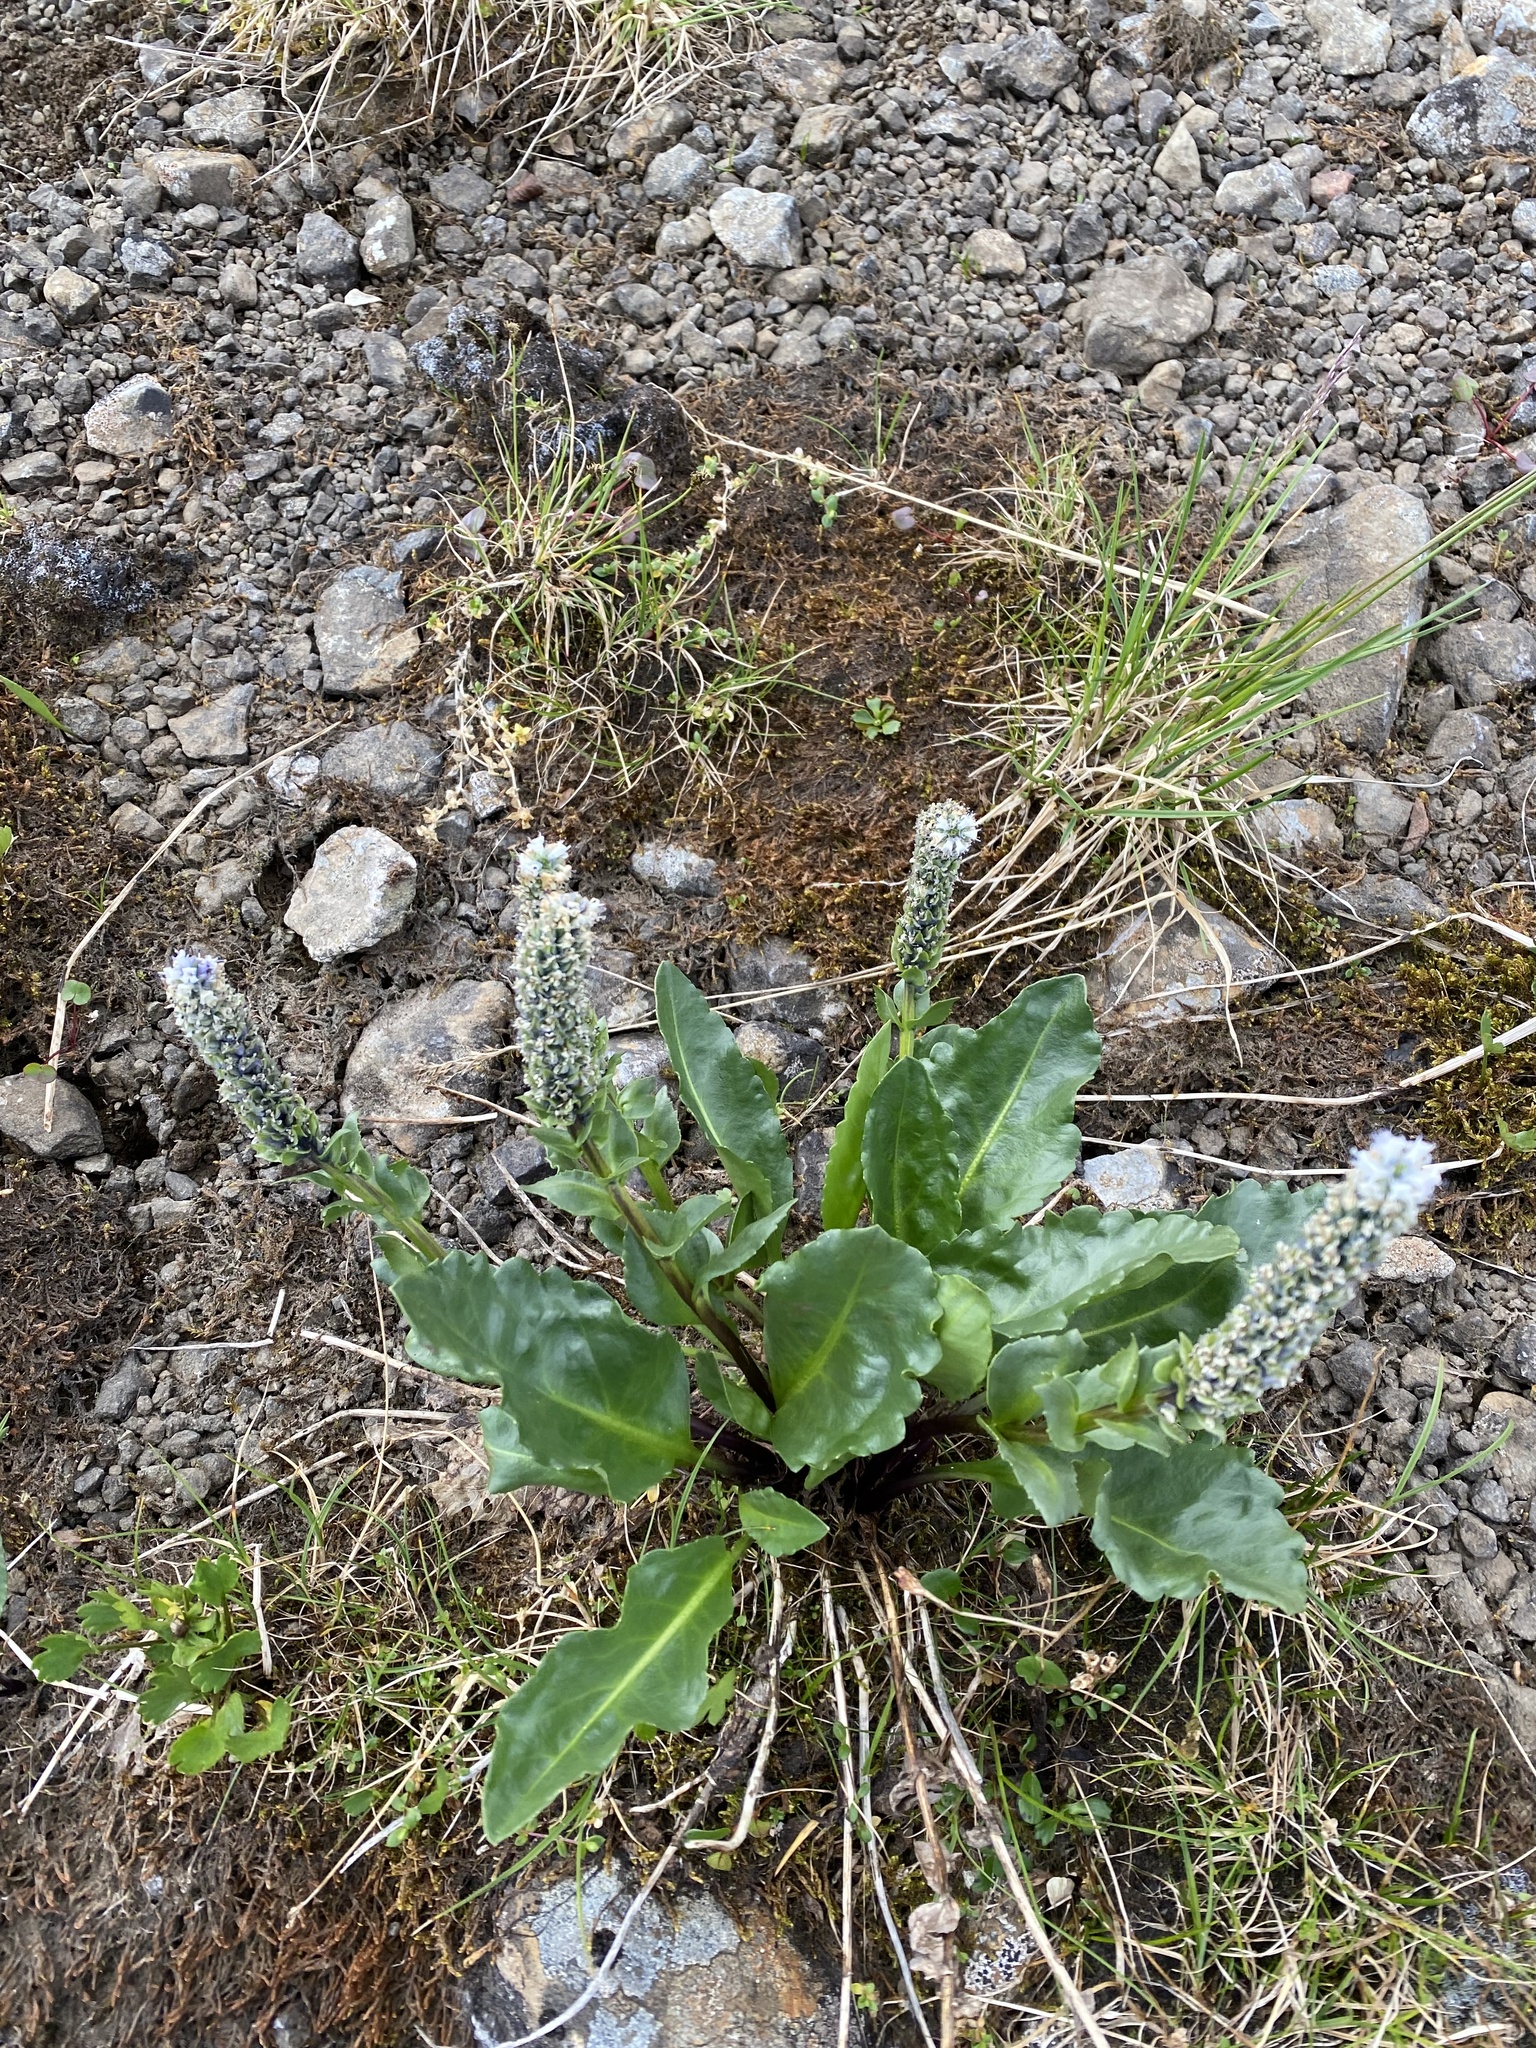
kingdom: Plantae
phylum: Tracheophyta
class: Magnoliopsida
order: Lamiales
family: Plantaginaceae
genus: Lagotis
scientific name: Lagotis glauca
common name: Glaucous weaselsnout
